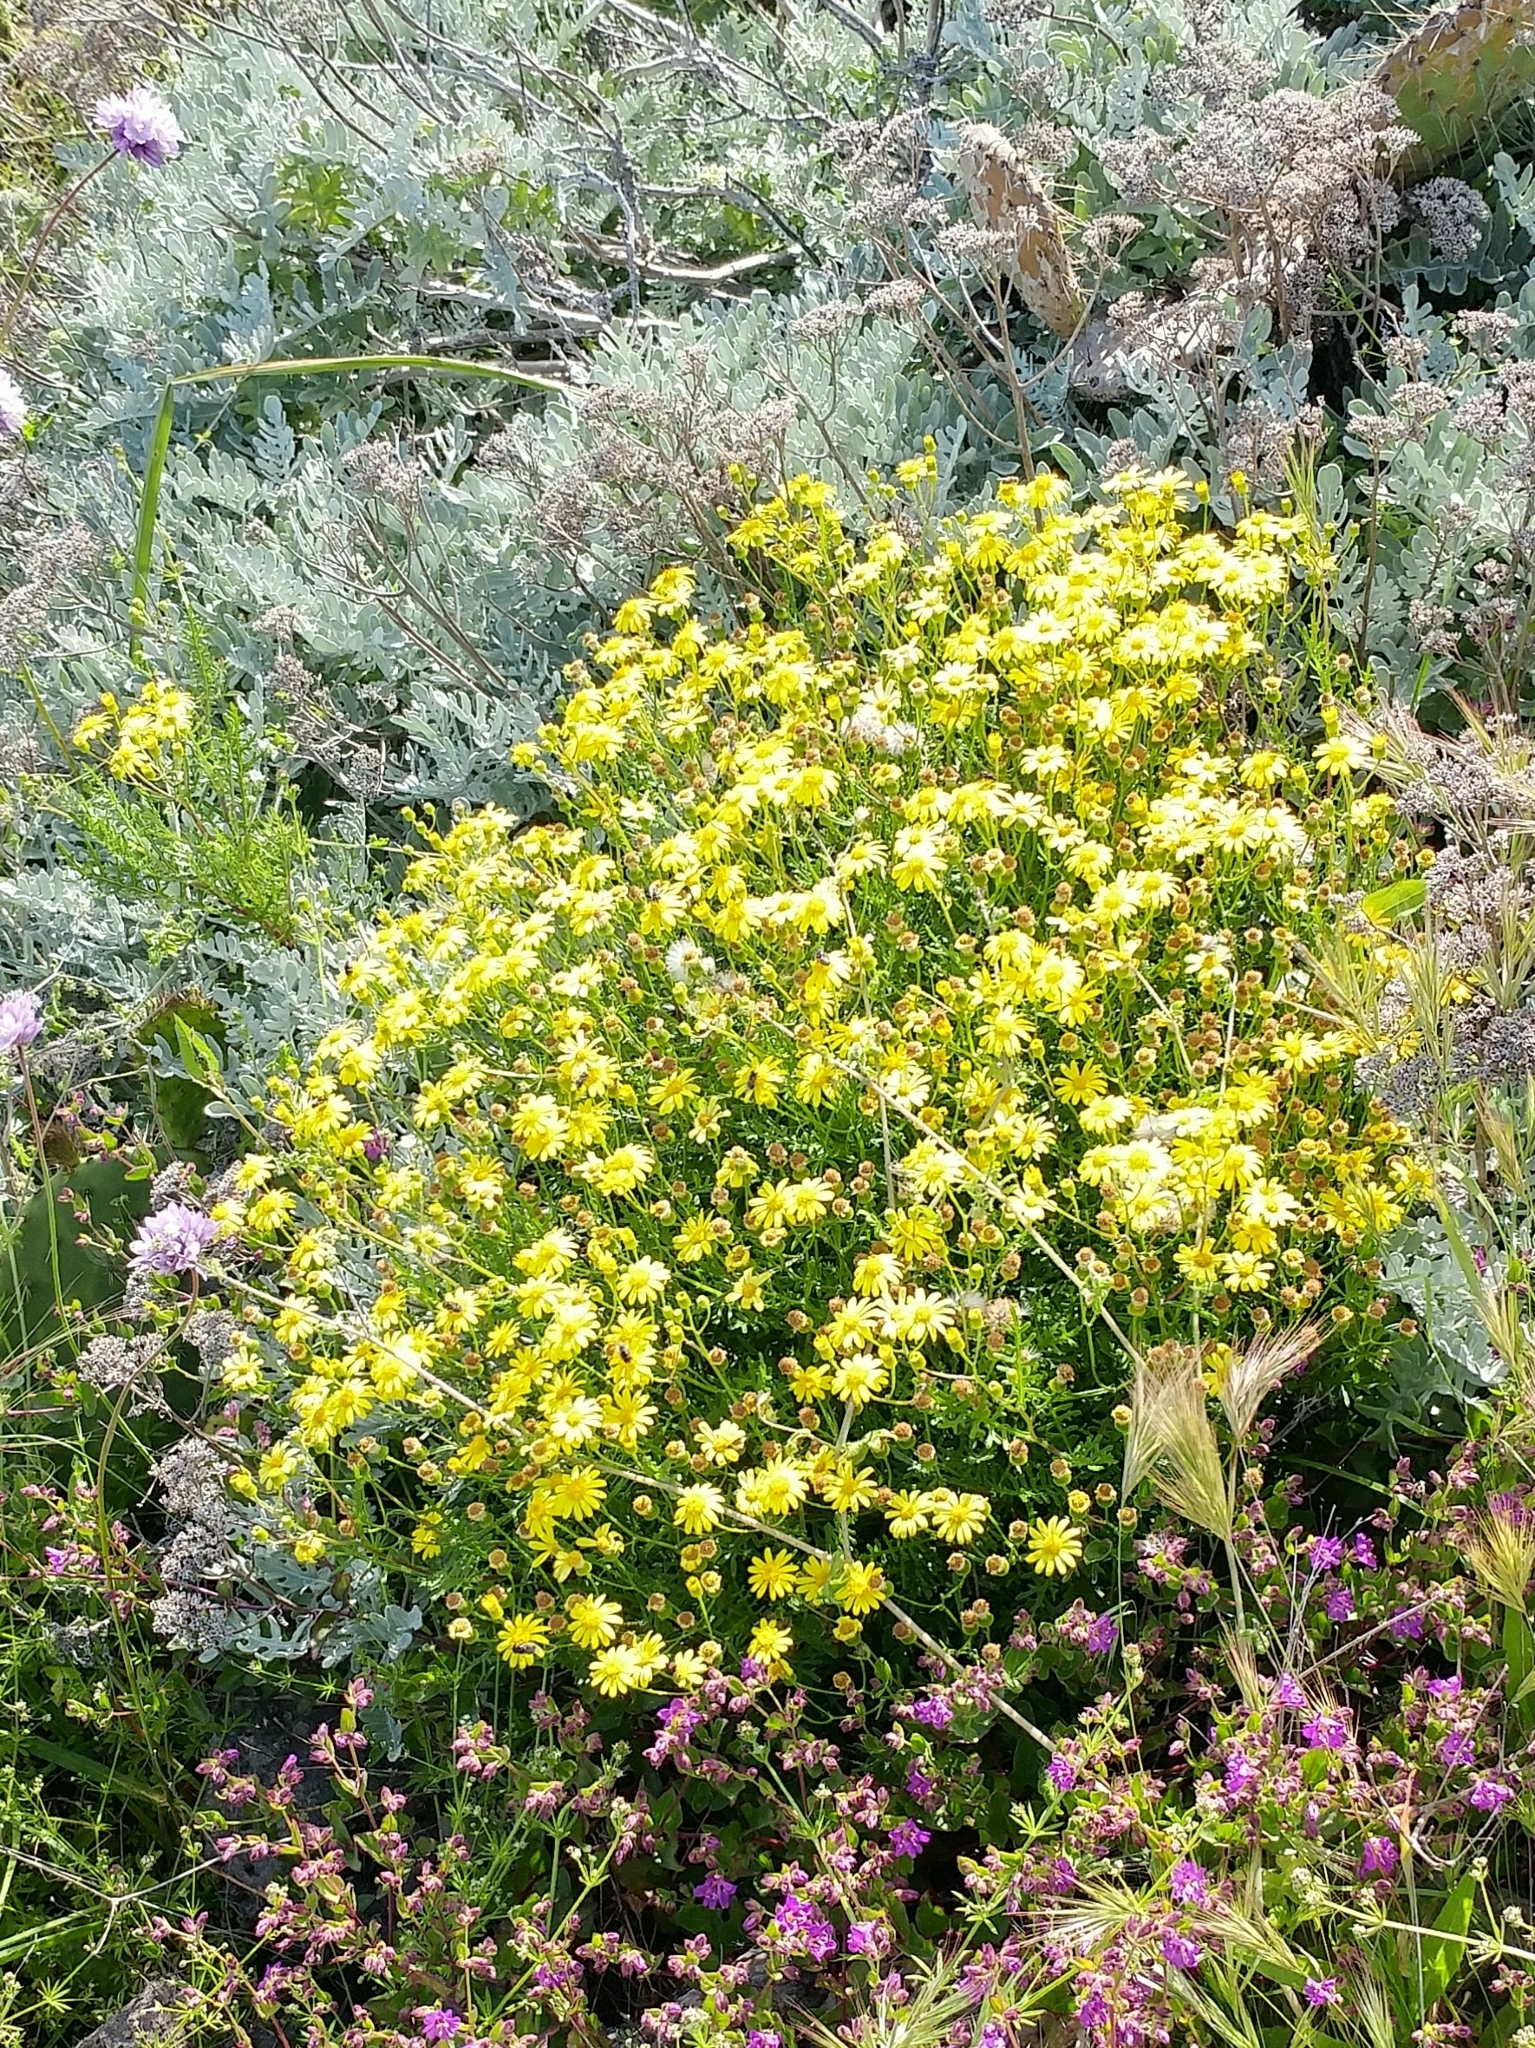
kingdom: Plantae
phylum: Tracheophyta
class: Magnoliopsida
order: Asterales
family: Asteraceae
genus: Senecio
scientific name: Senecio lyonii
